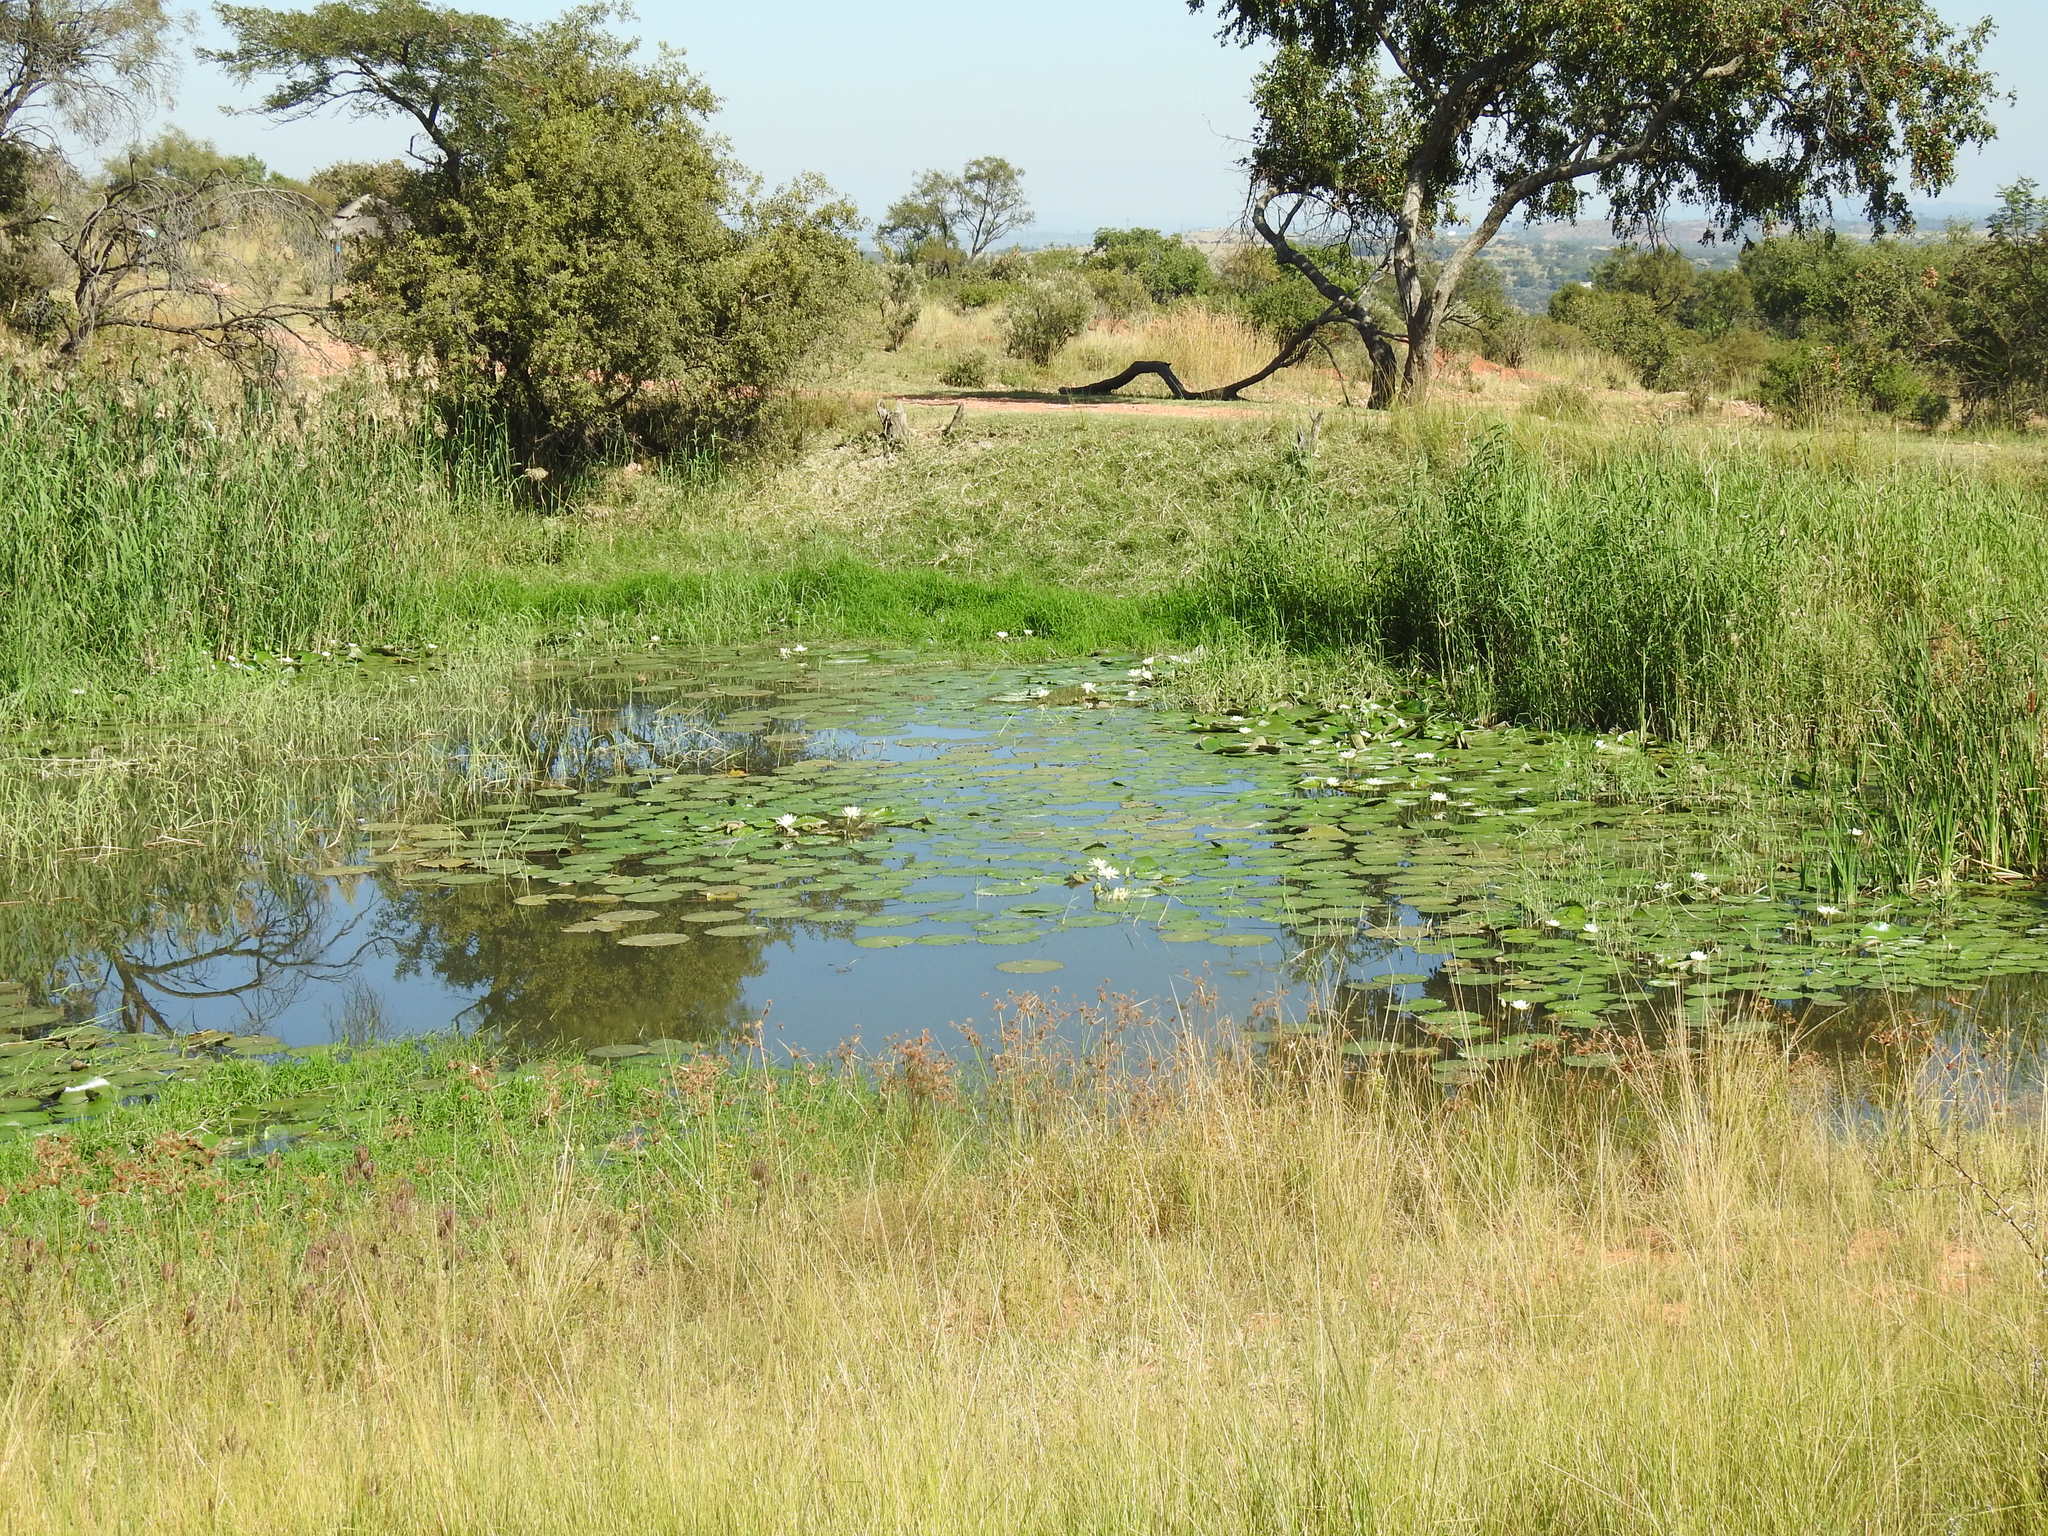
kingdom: Plantae
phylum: Tracheophyta
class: Magnoliopsida
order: Nymphaeales
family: Nymphaeaceae
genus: Nymphaea
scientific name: Nymphaea lotus
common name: White egyptian lotus
